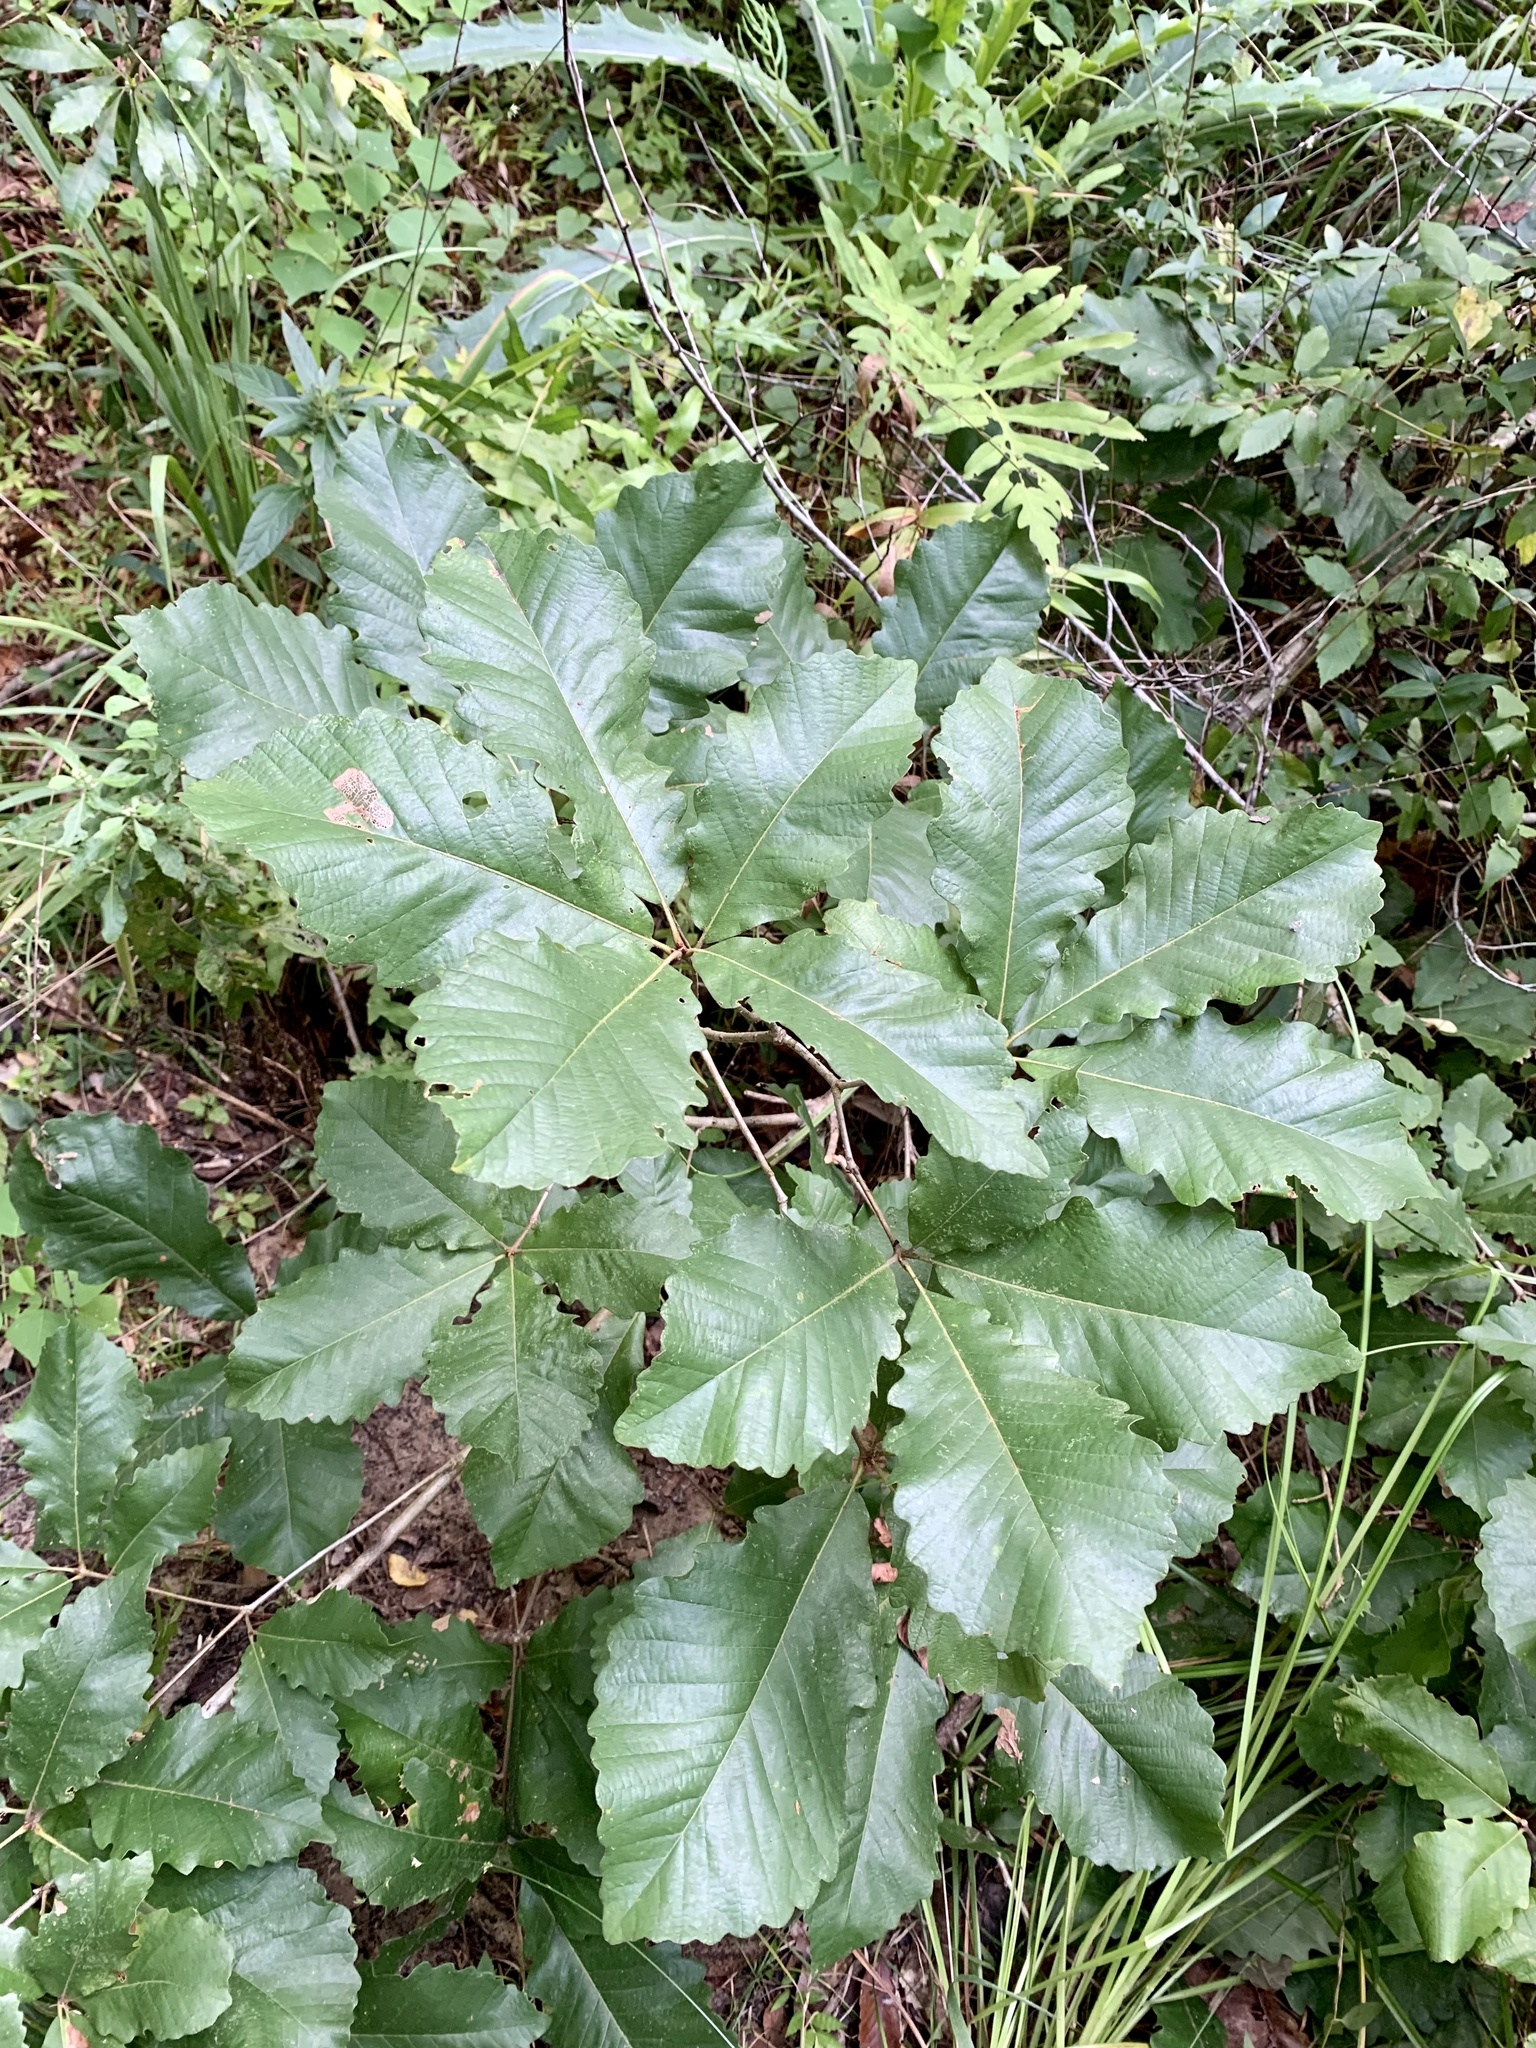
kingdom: Plantae
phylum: Tracheophyta
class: Magnoliopsida
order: Fagales
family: Fagaceae
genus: Quercus
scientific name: Quercus michauxii
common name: Swamp chestnut oak
